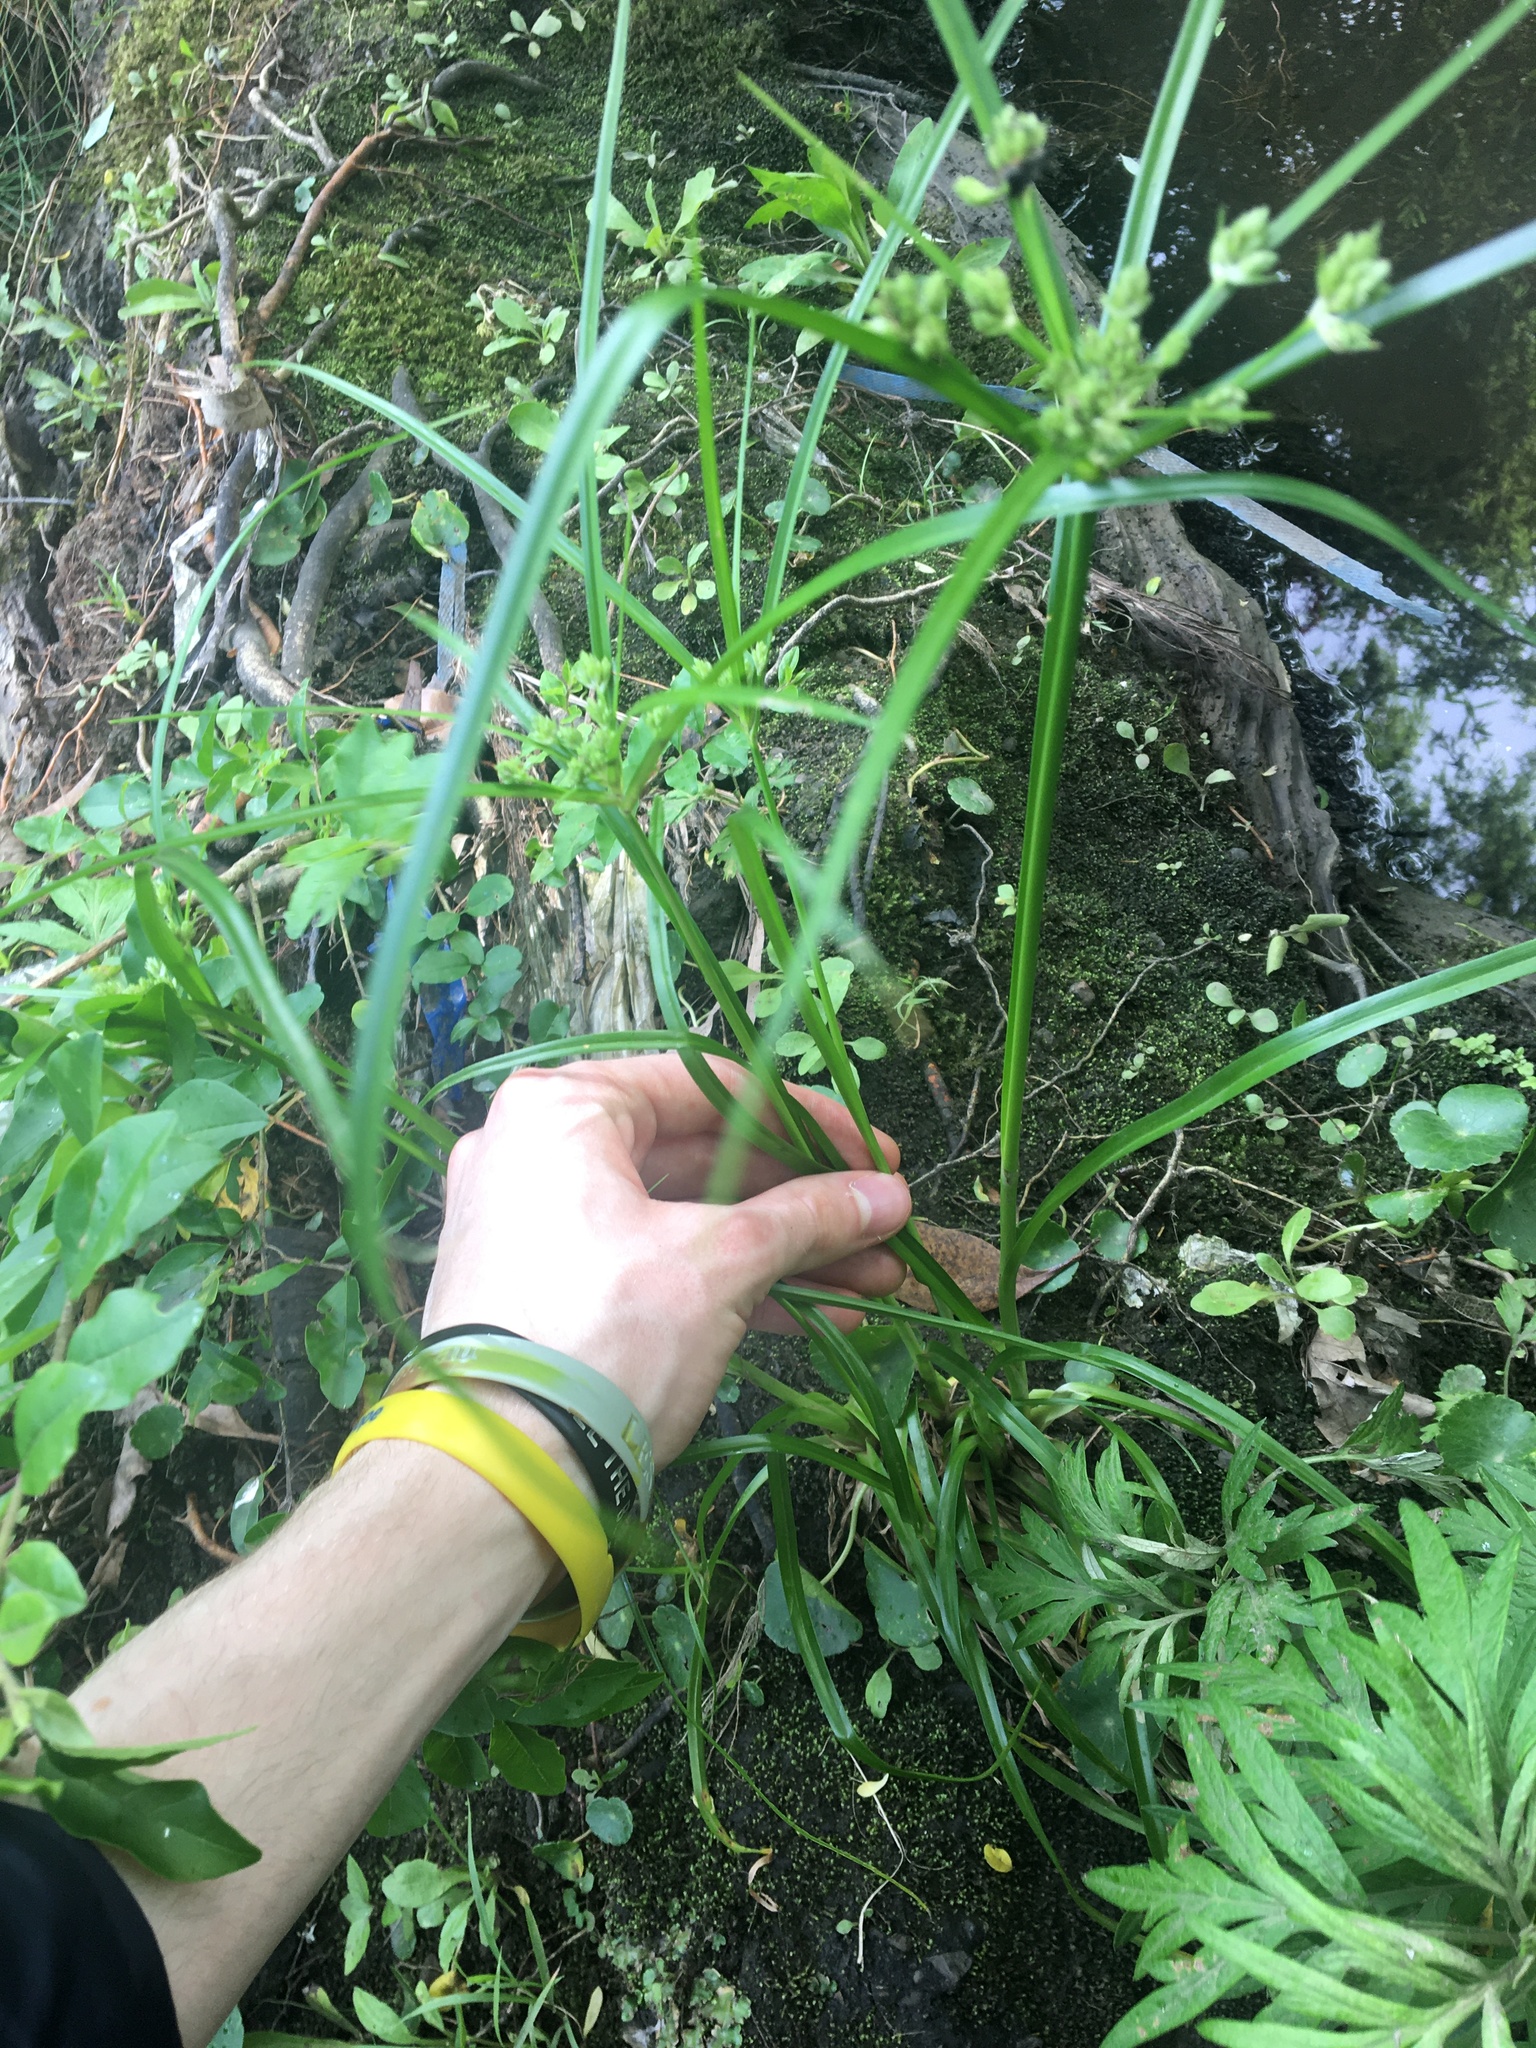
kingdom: Plantae
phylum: Tracheophyta
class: Liliopsida
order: Poales
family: Cyperaceae
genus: Cyperus
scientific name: Cyperus eragrostis
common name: Tall flatsedge
